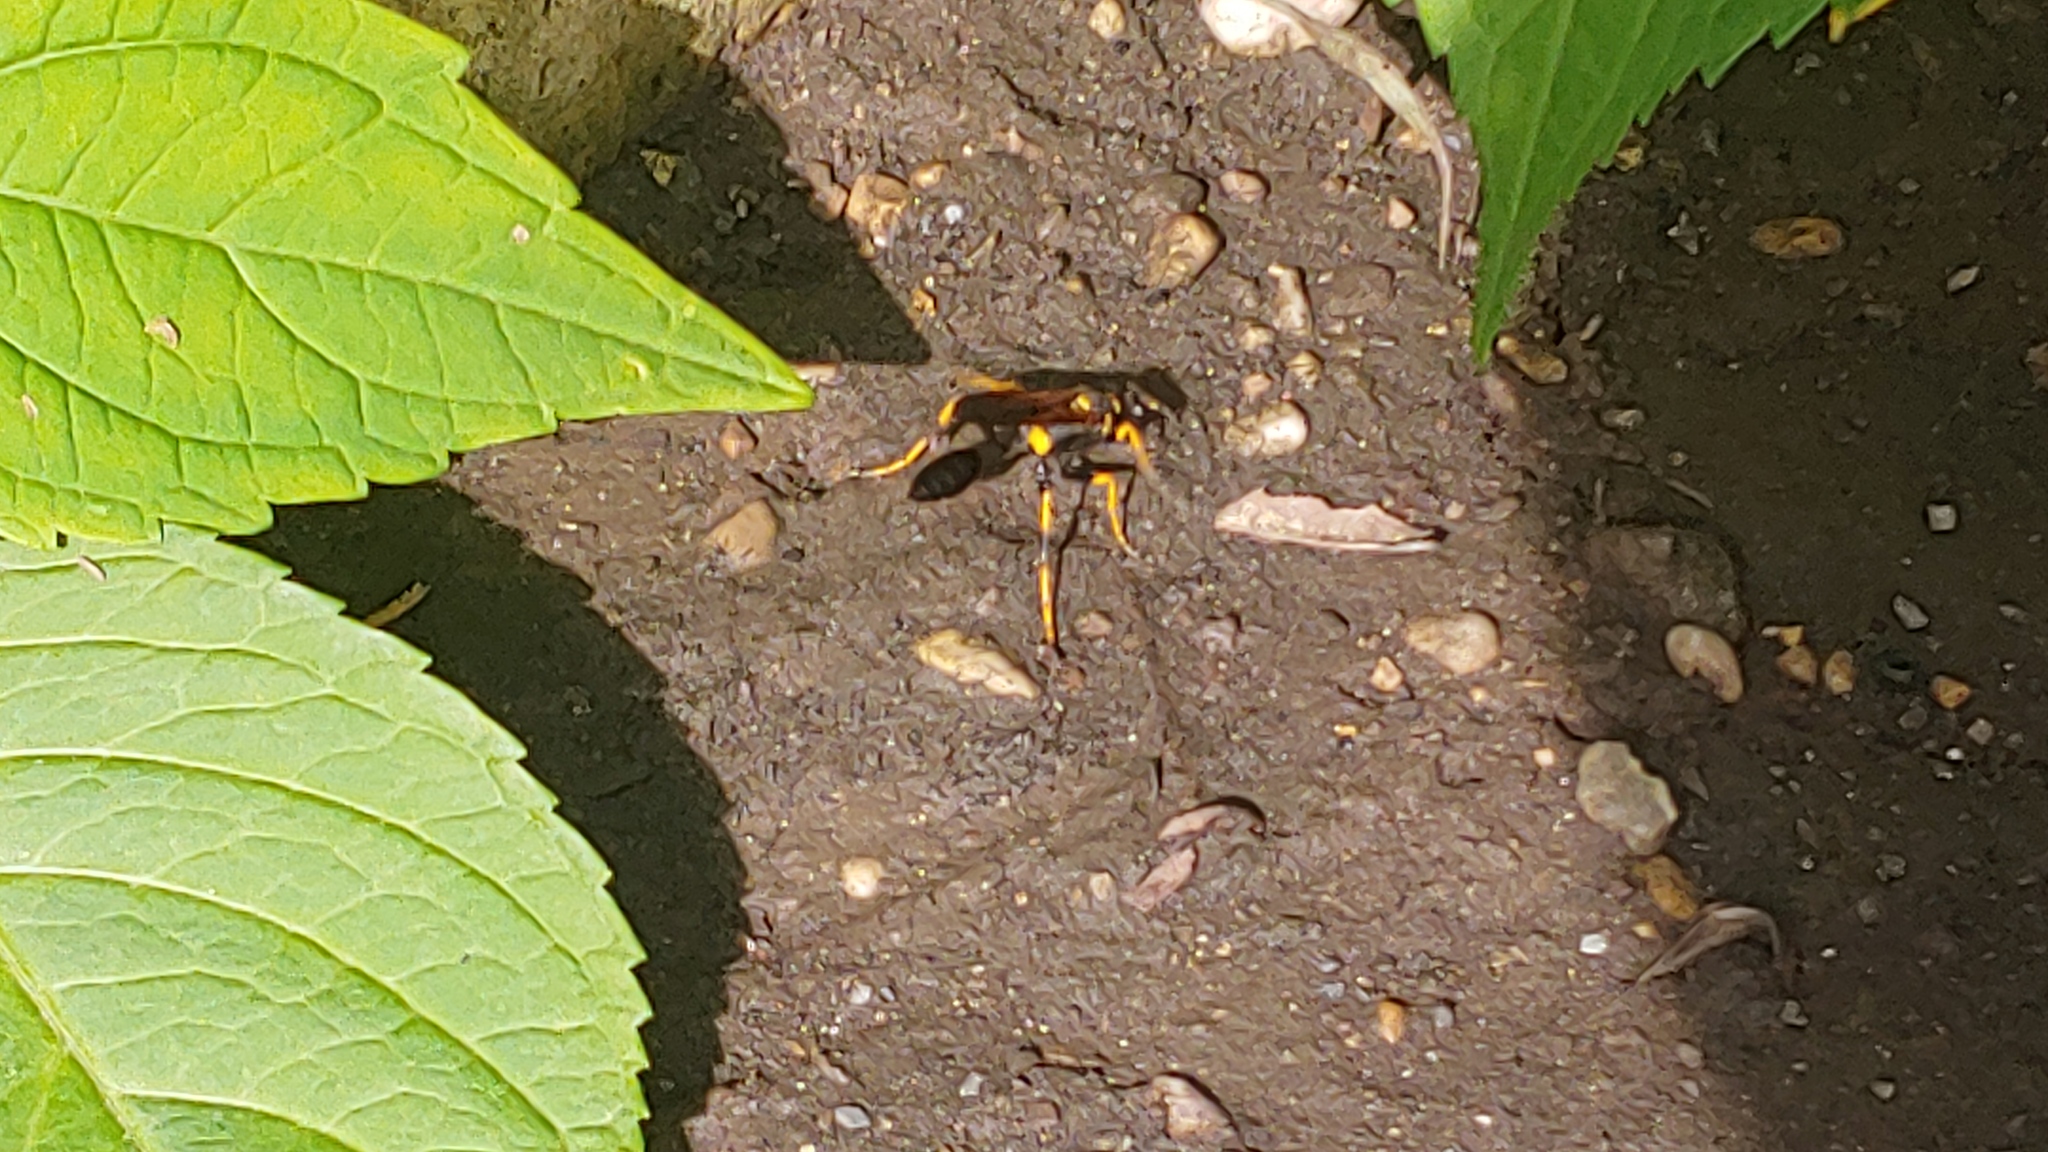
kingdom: Animalia
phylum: Arthropoda
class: Insecta
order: Hymenoptera
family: Sphecidae
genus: Sceliphron
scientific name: Sceliphron caementarium
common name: Mud dauber
